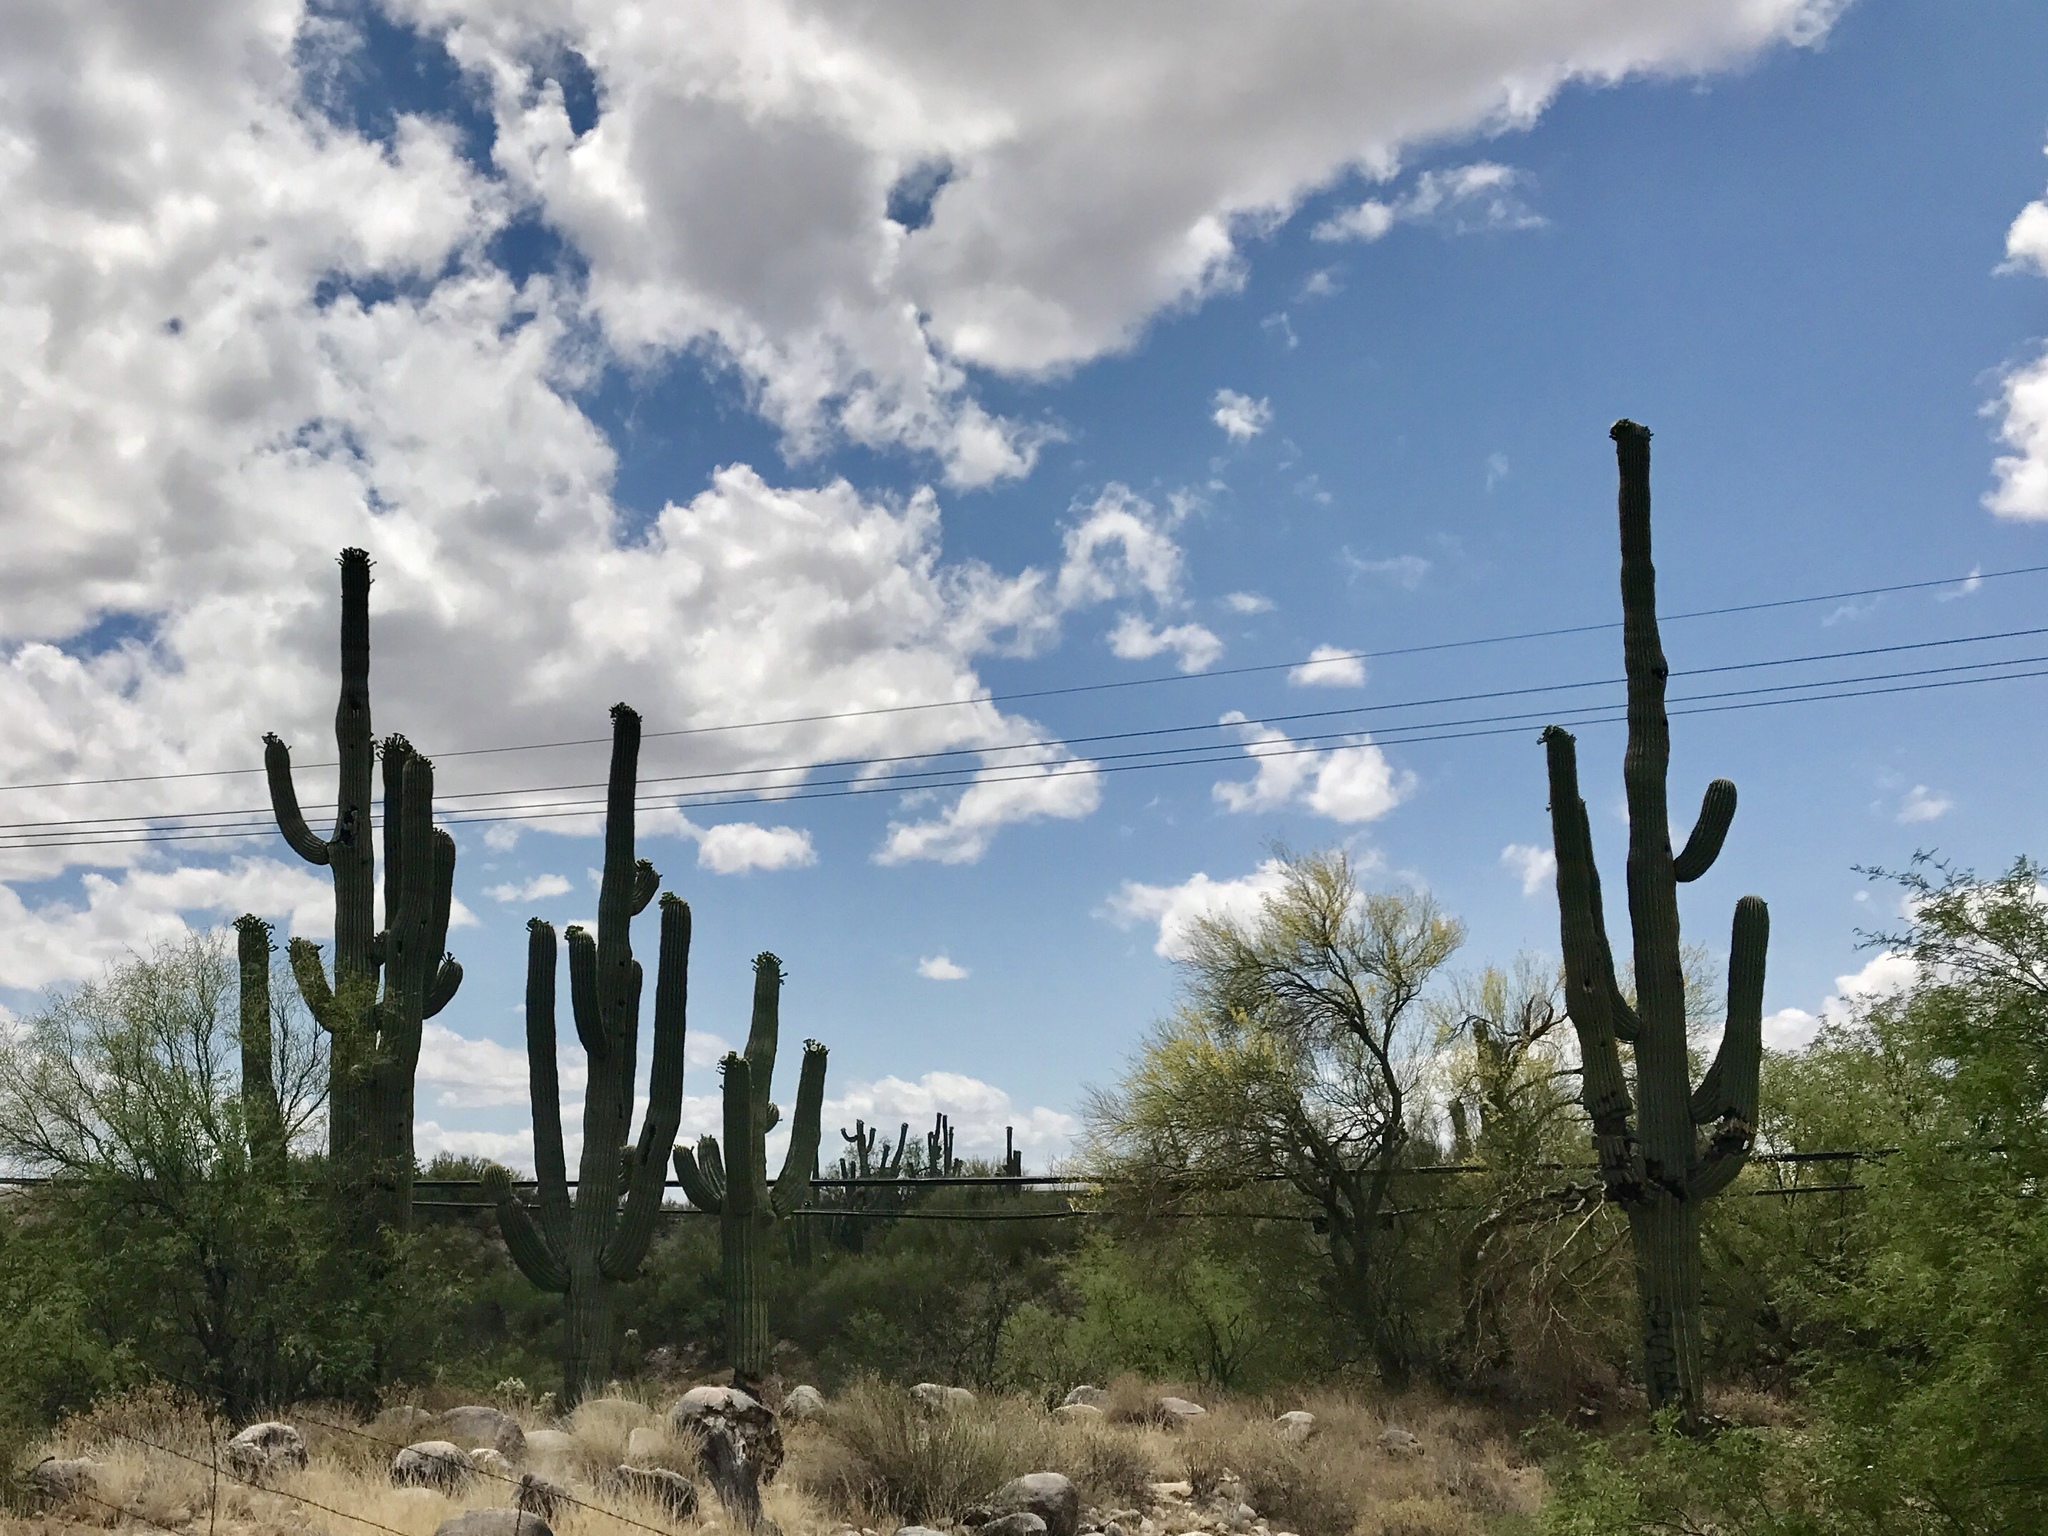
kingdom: Plantae
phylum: Tracheophyta
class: Magnoliopsida
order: Caryophyllales
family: Cactaceae
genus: Carnegiea
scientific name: Carnegiea gigantea
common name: Saguaro
